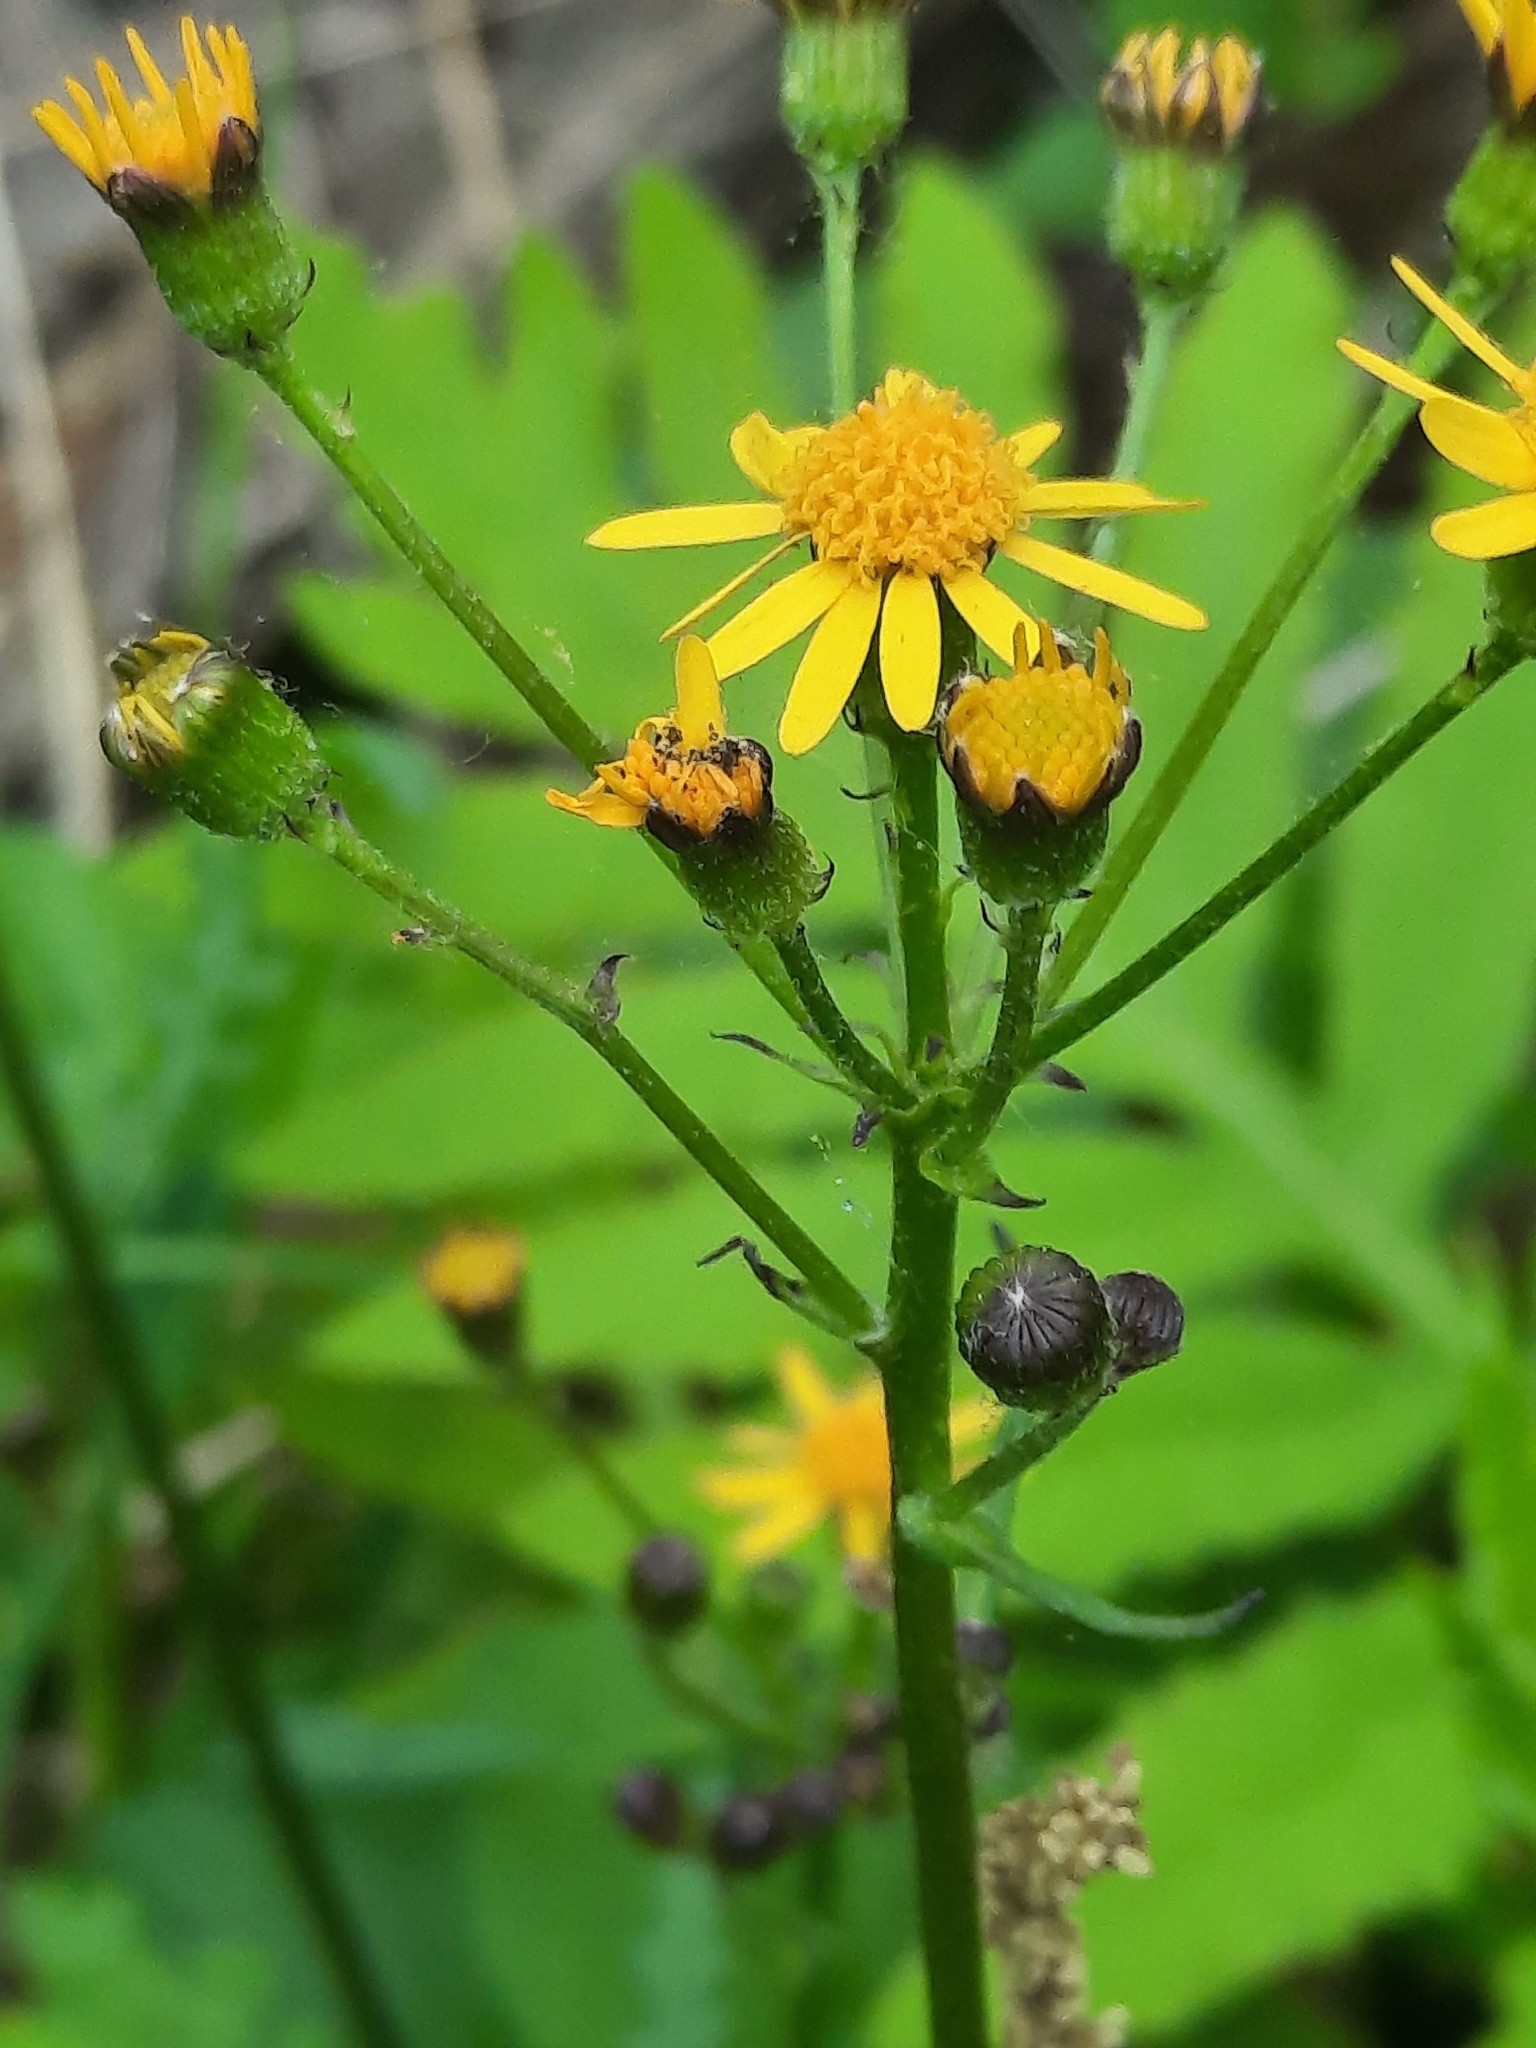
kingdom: Plantae
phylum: Tracheophyta
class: Magnoliopsida
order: Asterales
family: Asteraceae
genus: Packera
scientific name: Packera aurea
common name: Golden groundsel
